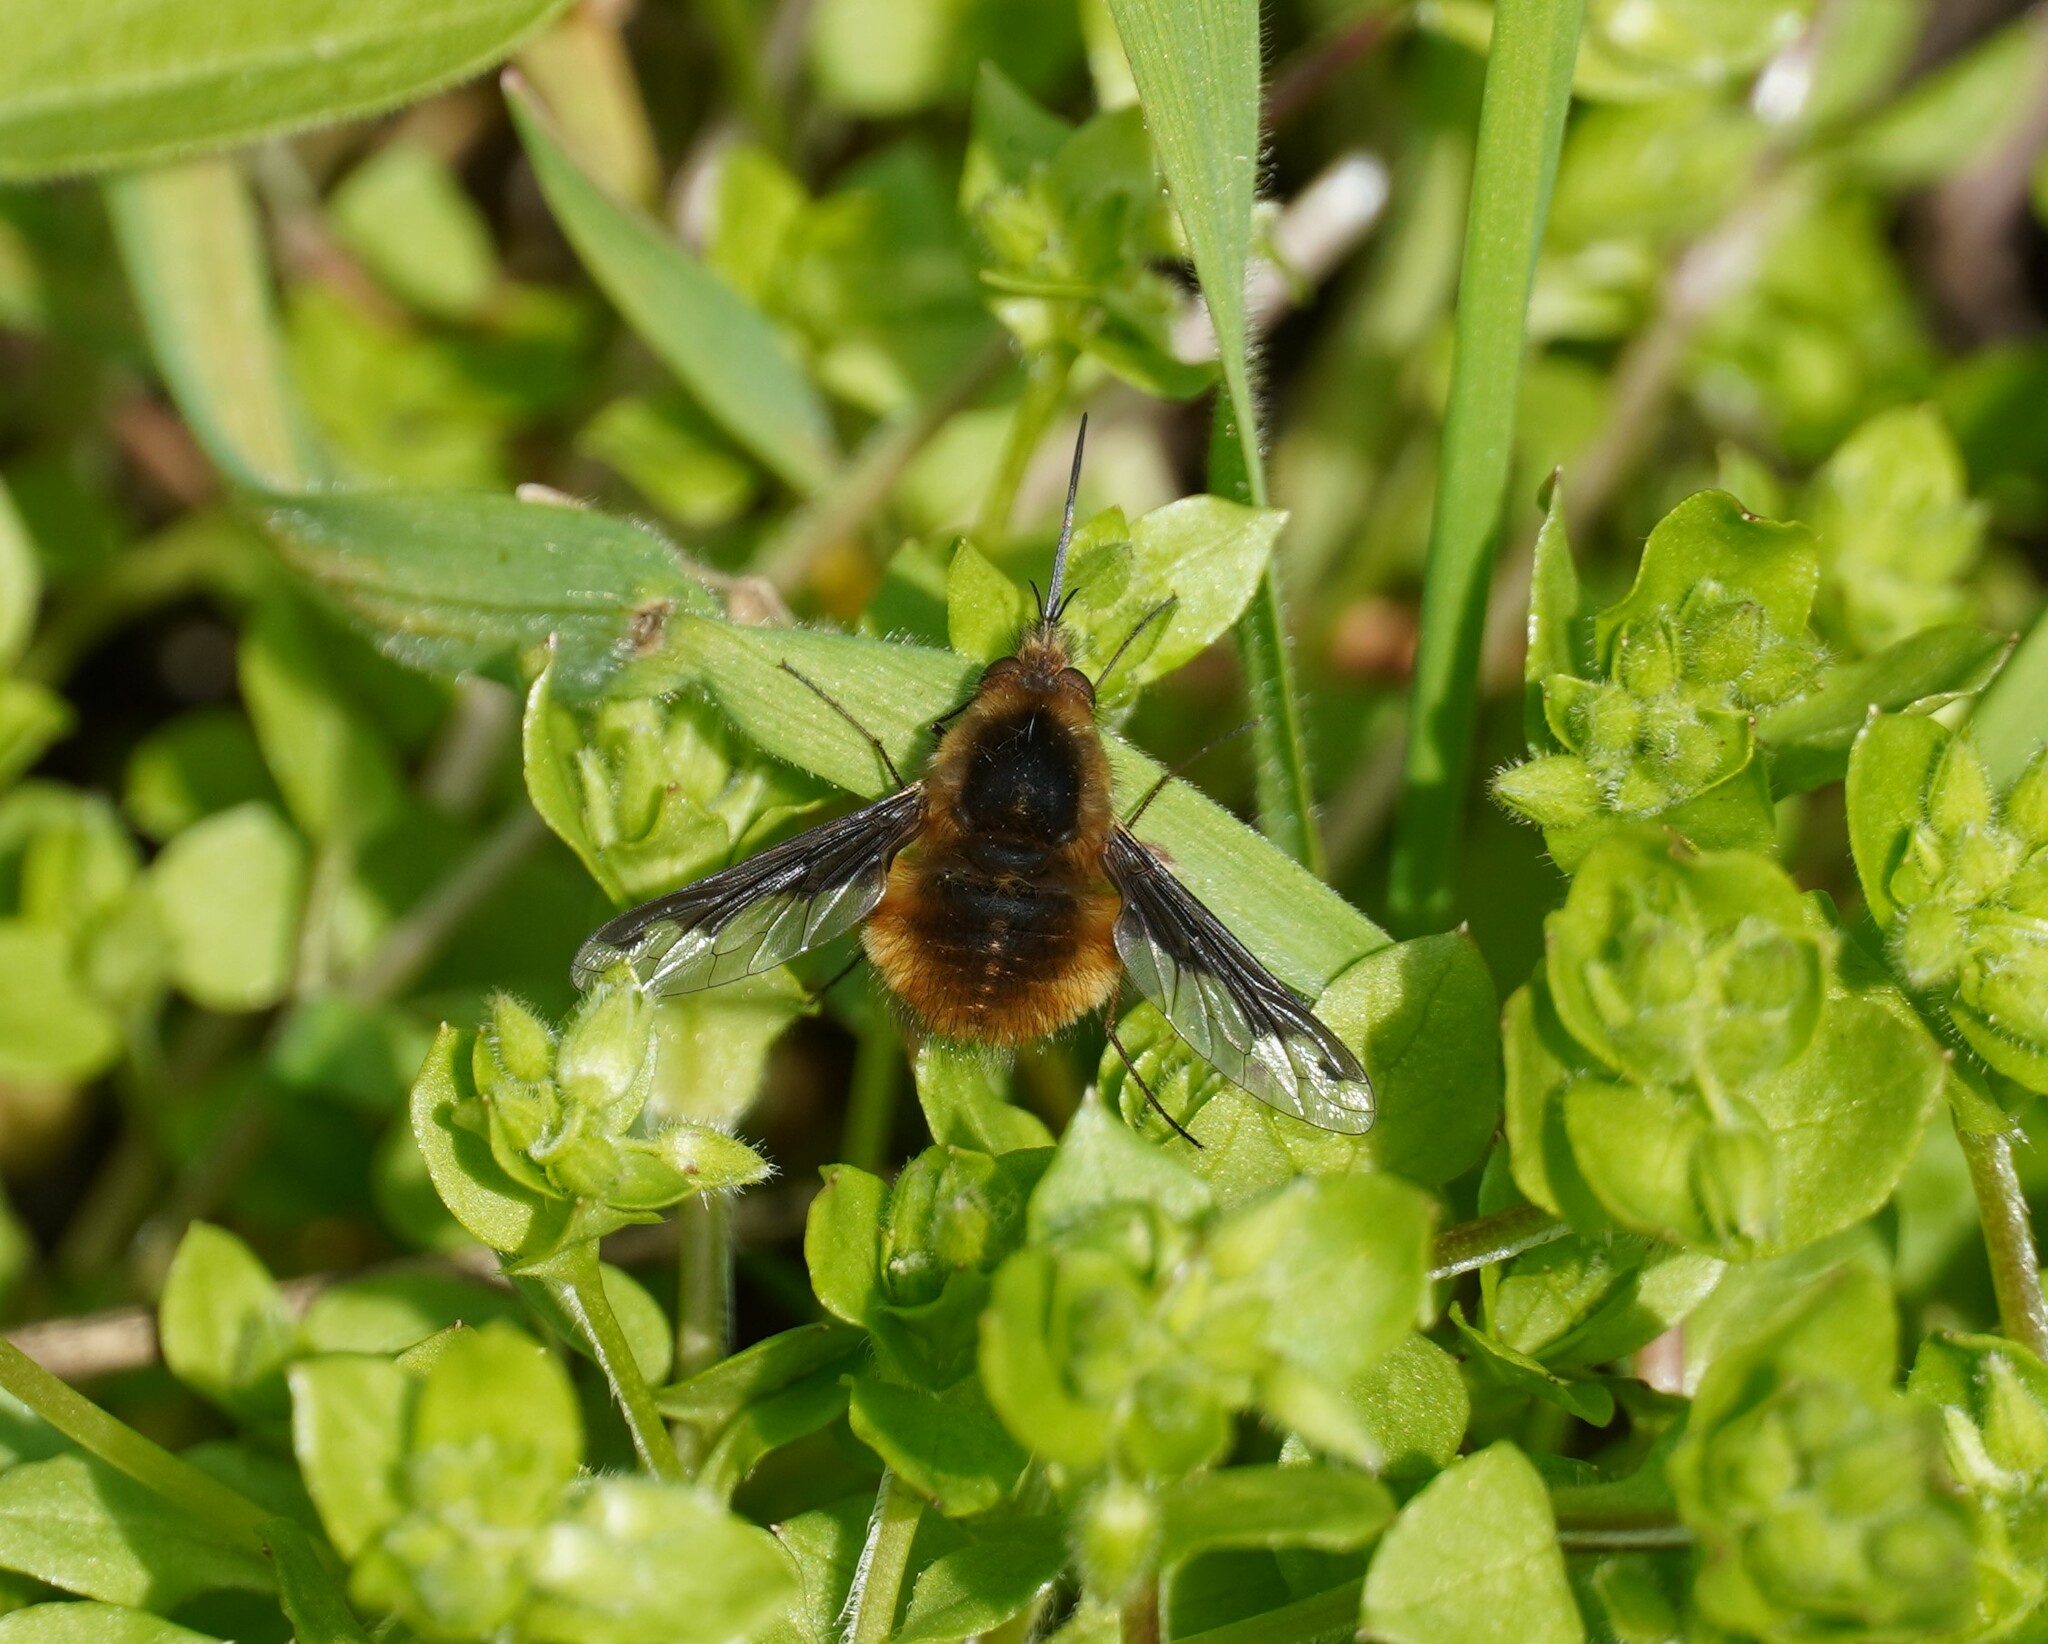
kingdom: Animalia
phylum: Arthropoda
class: Insecta
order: Diptera
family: Bombyliidae
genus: Bombylius
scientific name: Bombylius major
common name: Bee fly
